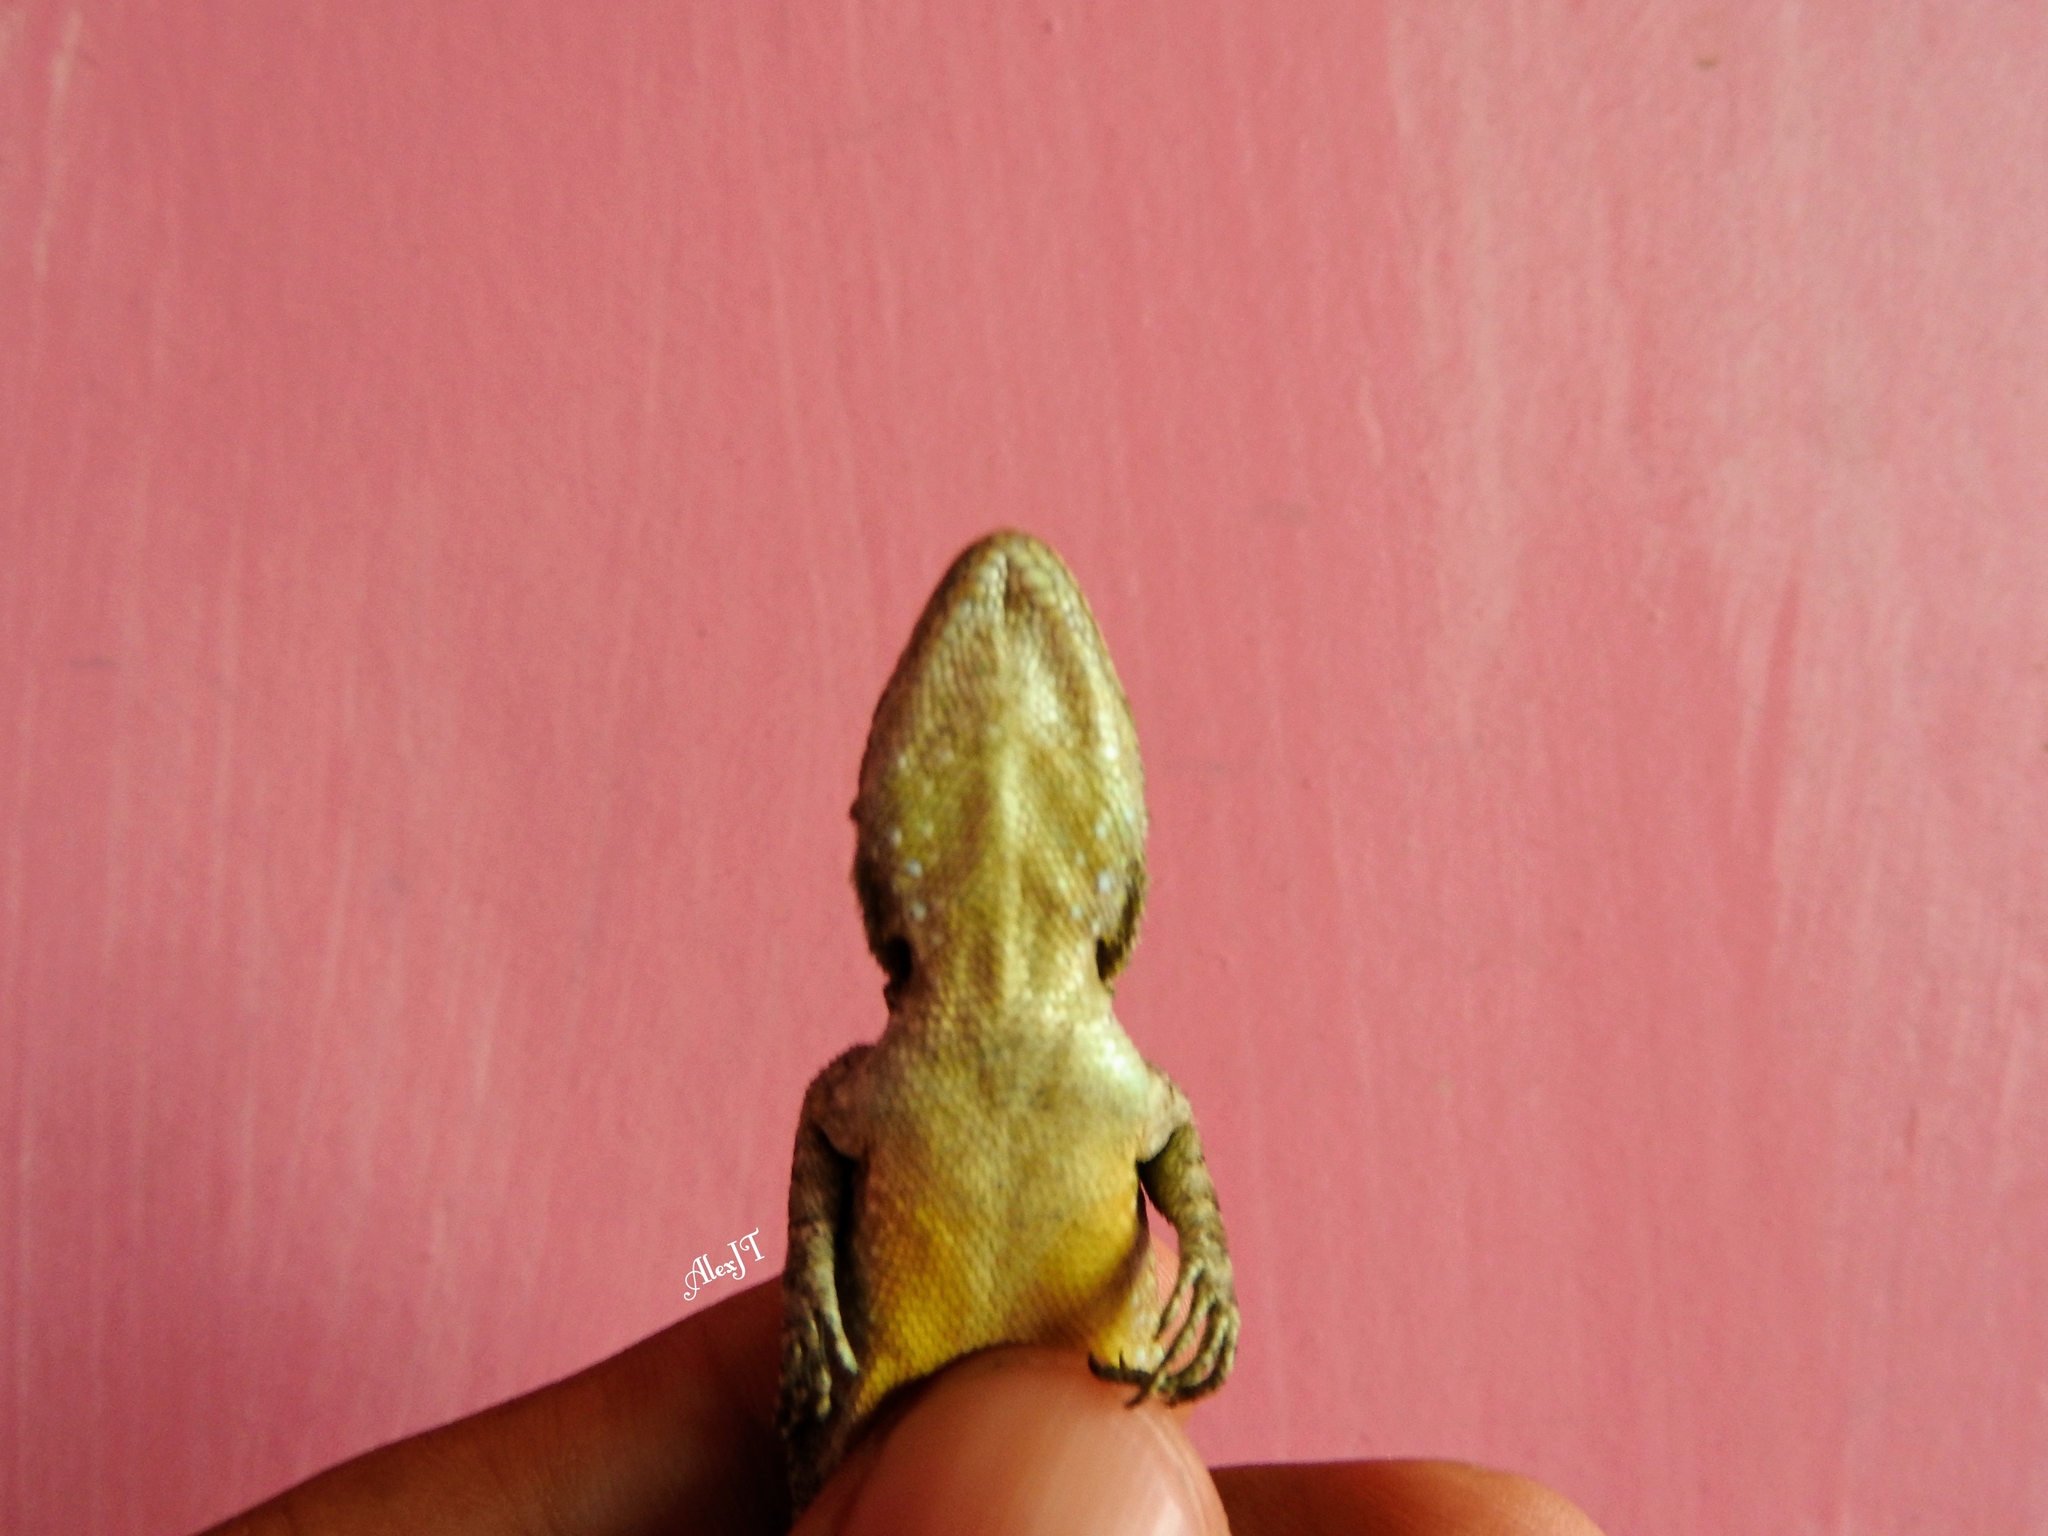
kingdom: Animalia
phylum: Chordata
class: Squamata
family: Phrynosomatidae
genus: Sceloporus
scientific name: Sceloporus grammicus
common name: Mesquite lizard
